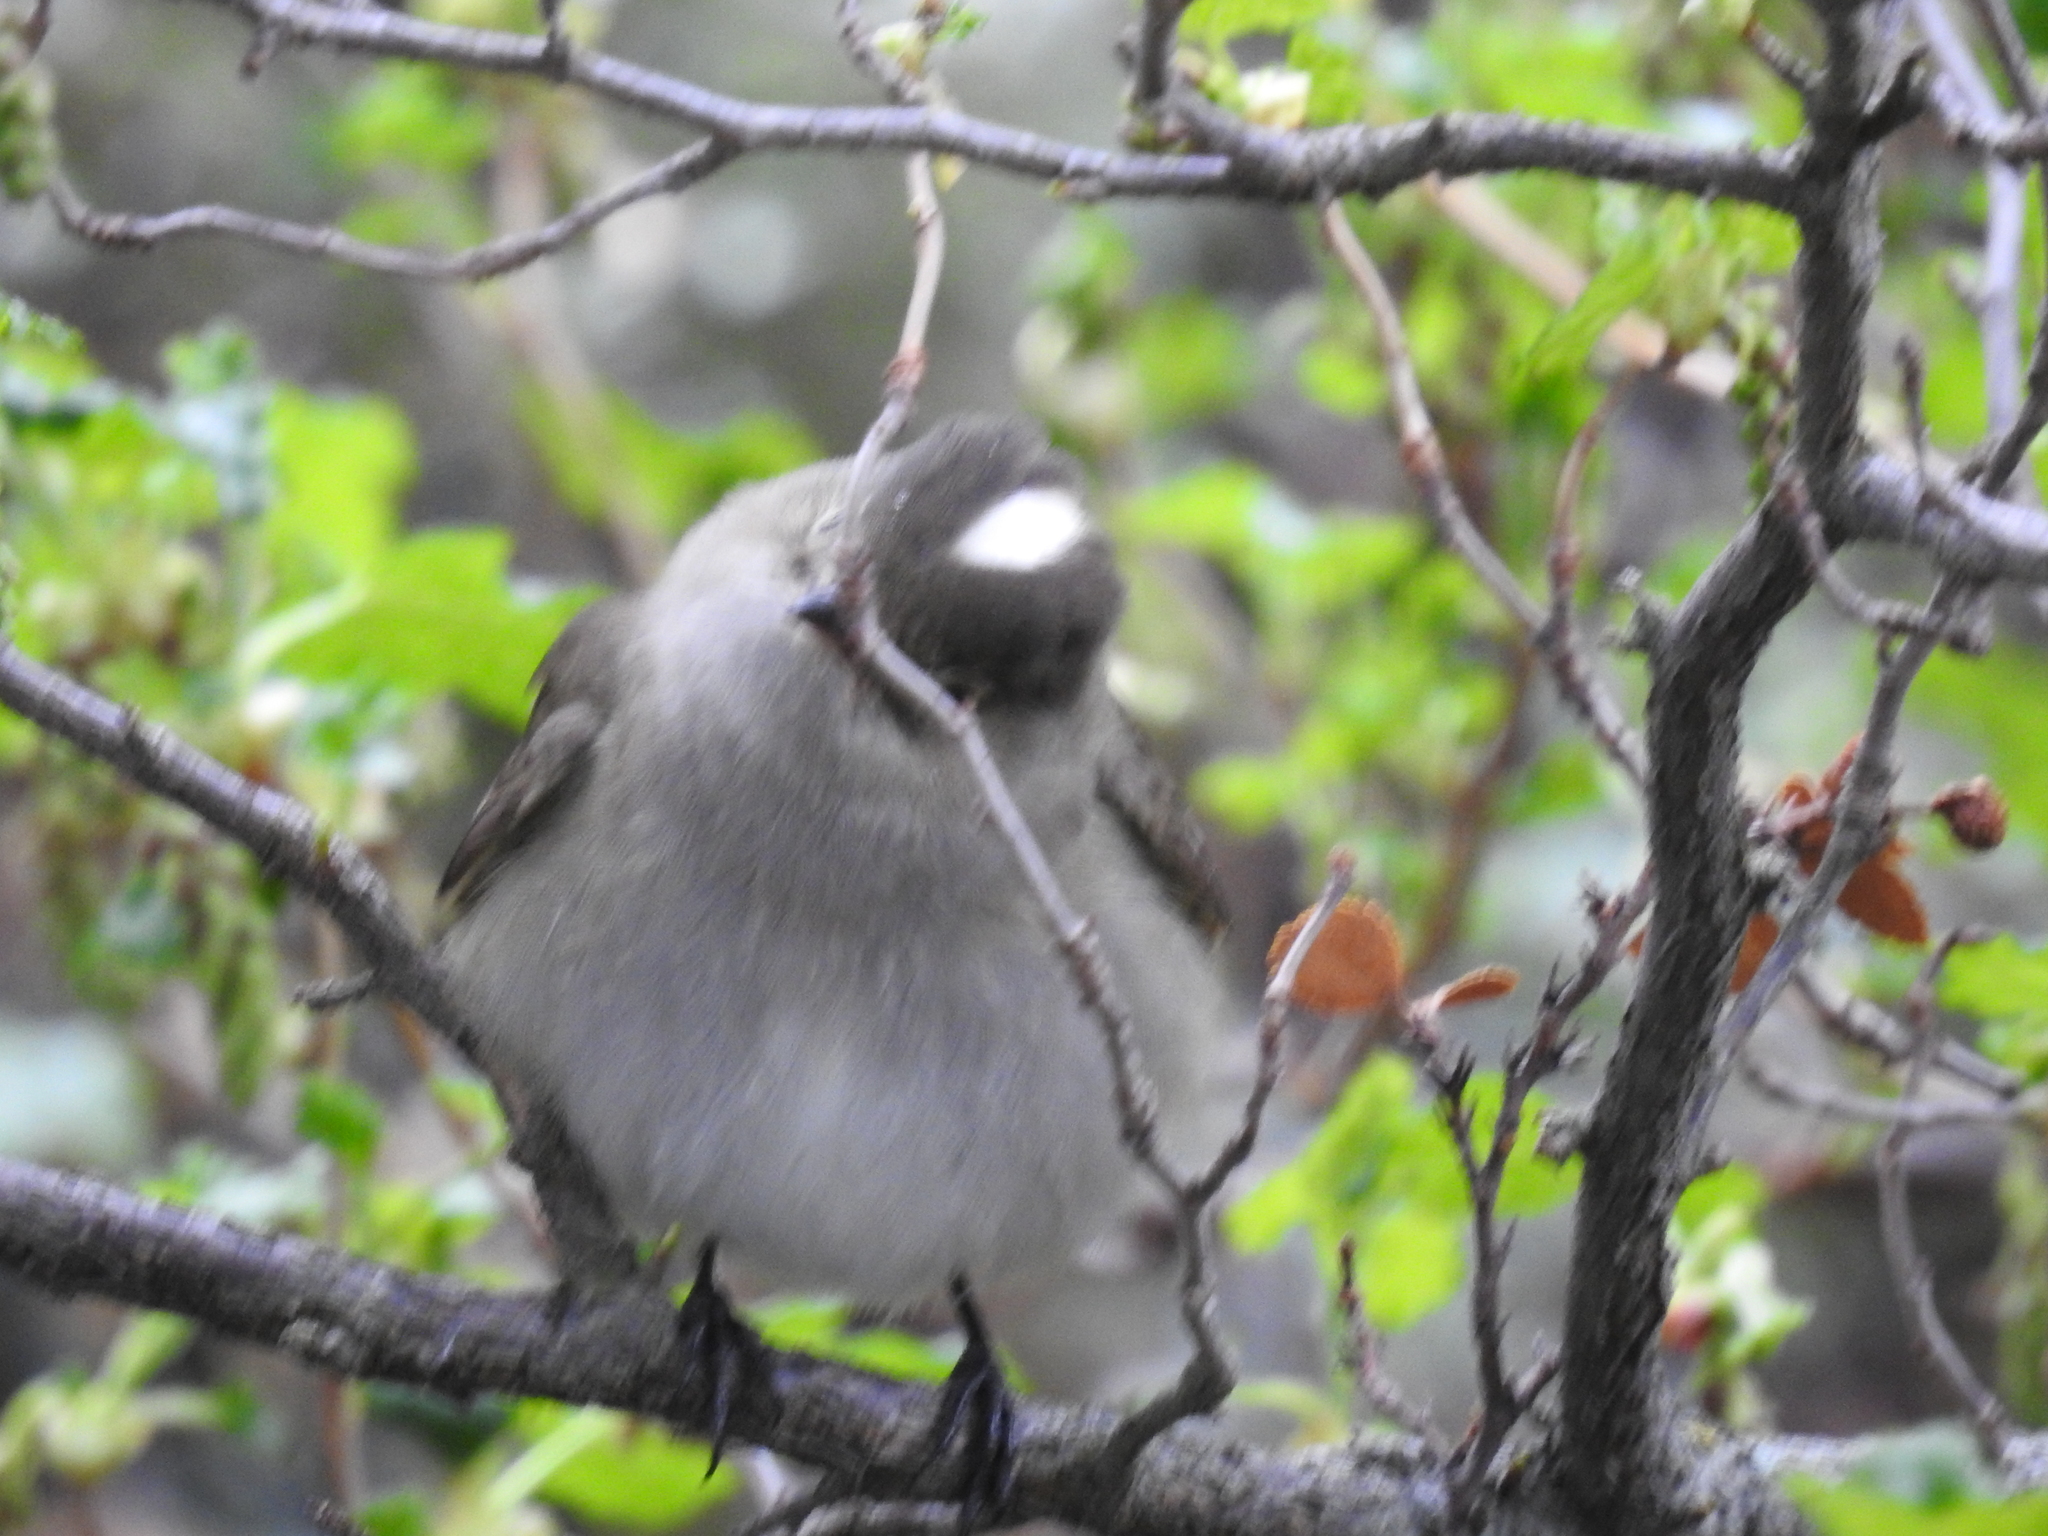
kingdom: Animalia
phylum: Chordata
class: Aves
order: Passeriformes
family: Tyrannidae
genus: Elaenia
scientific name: Elaenia albiceps
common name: White-crested elaenia
